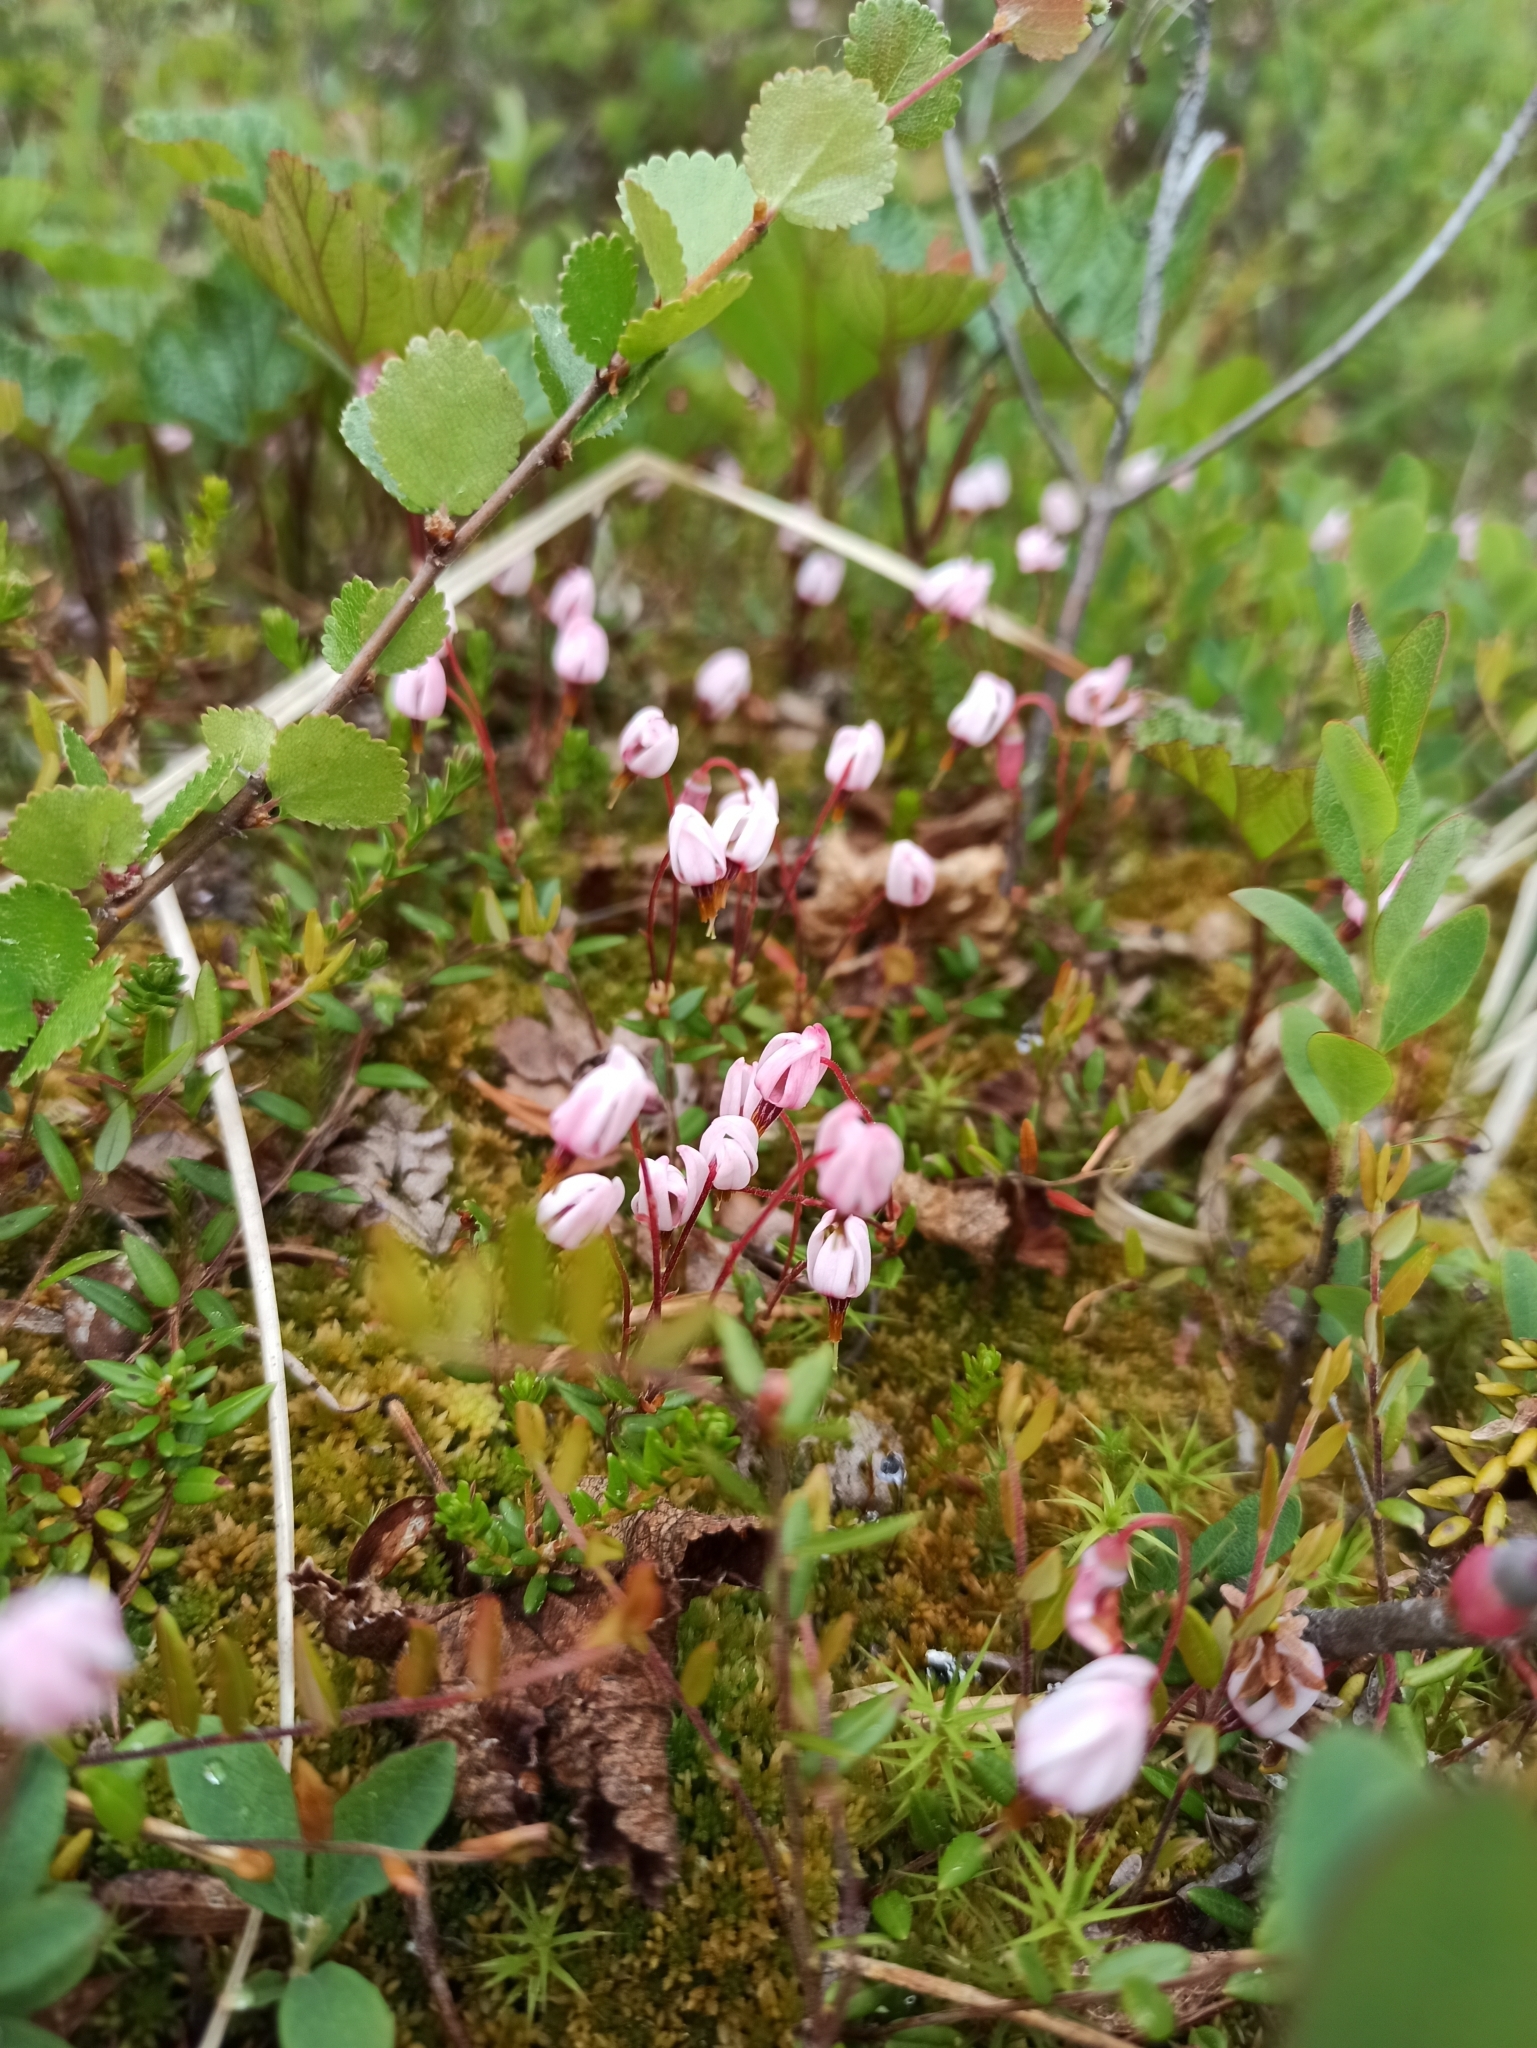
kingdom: Plantae
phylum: Tracheophyta
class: Magnoliopsida
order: Ericales
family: Ericaceae
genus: Vaccinium
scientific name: Vaccinium oxycoccos
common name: Cranberry
